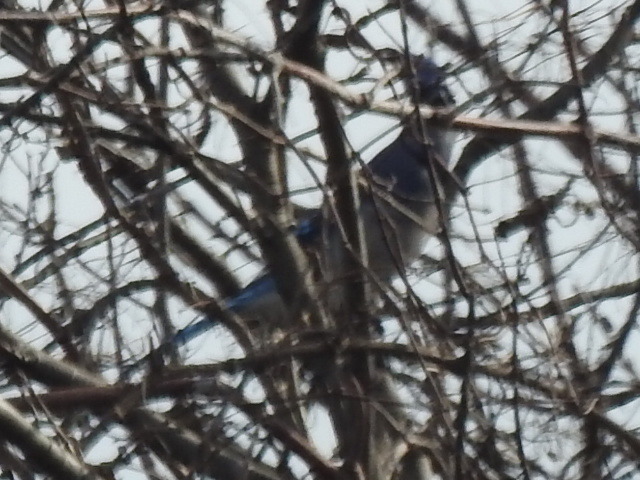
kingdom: Animalia
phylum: Chordata
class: Aves
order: Passeriformes
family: Corvidae
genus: Cyanocitta
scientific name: Cyanocitta cristata
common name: Blue jay
